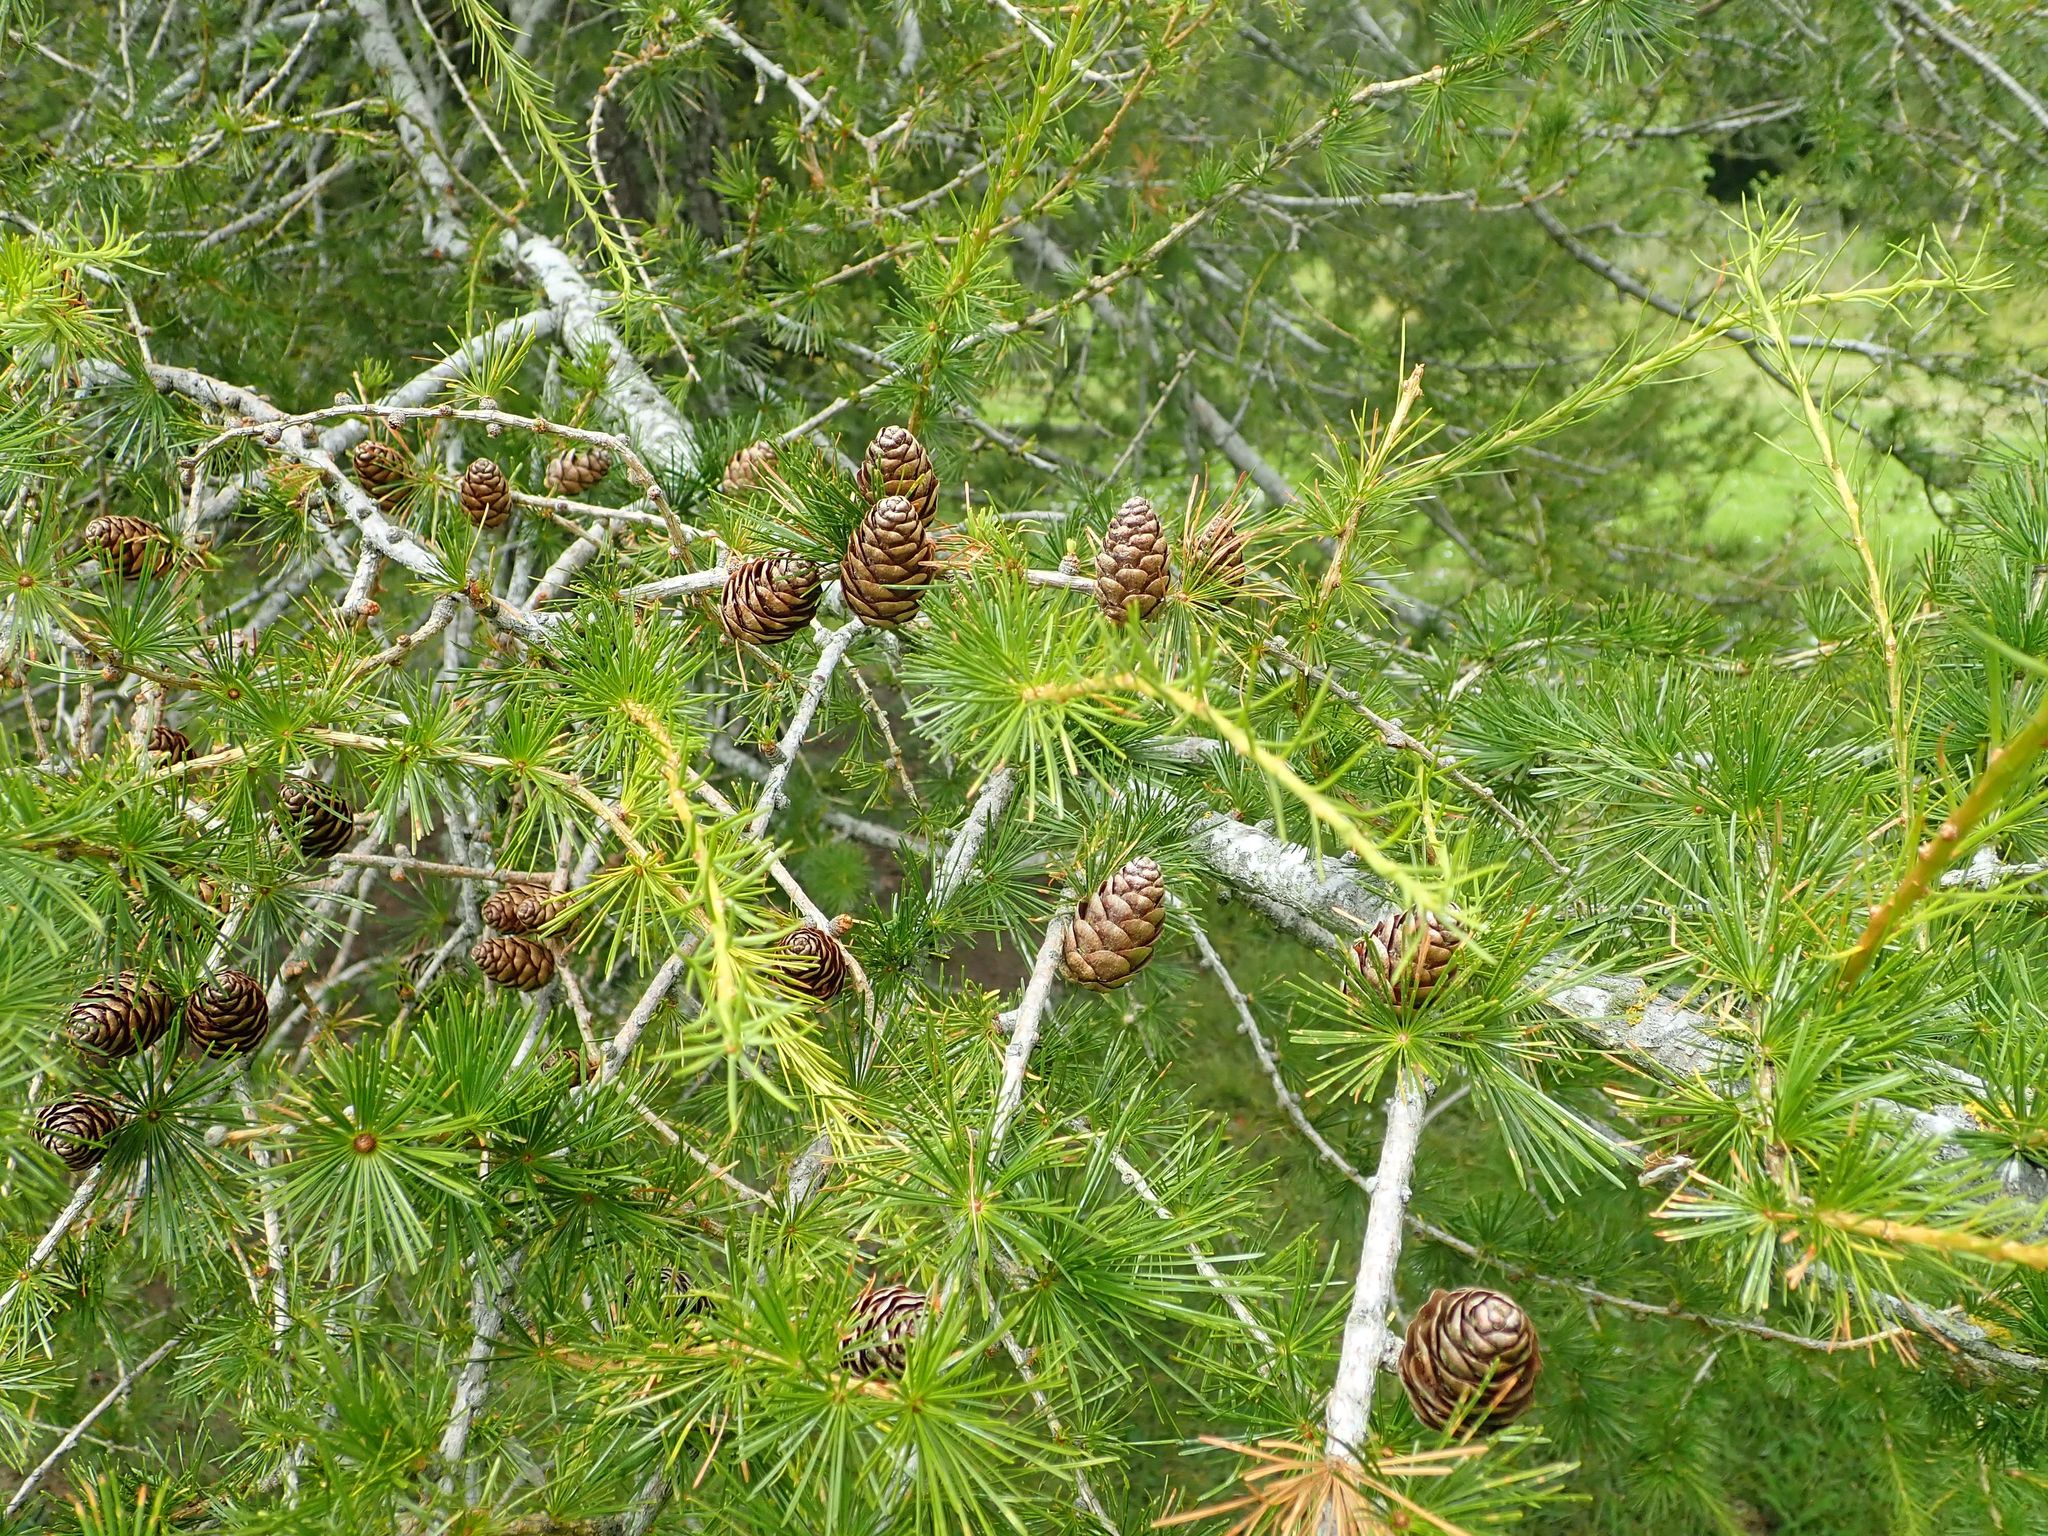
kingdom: Plantae
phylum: Tracheophyta
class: Pinopsida
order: Pinales
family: Pinaceae
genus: Larix
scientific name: Larix decidua
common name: European larch
